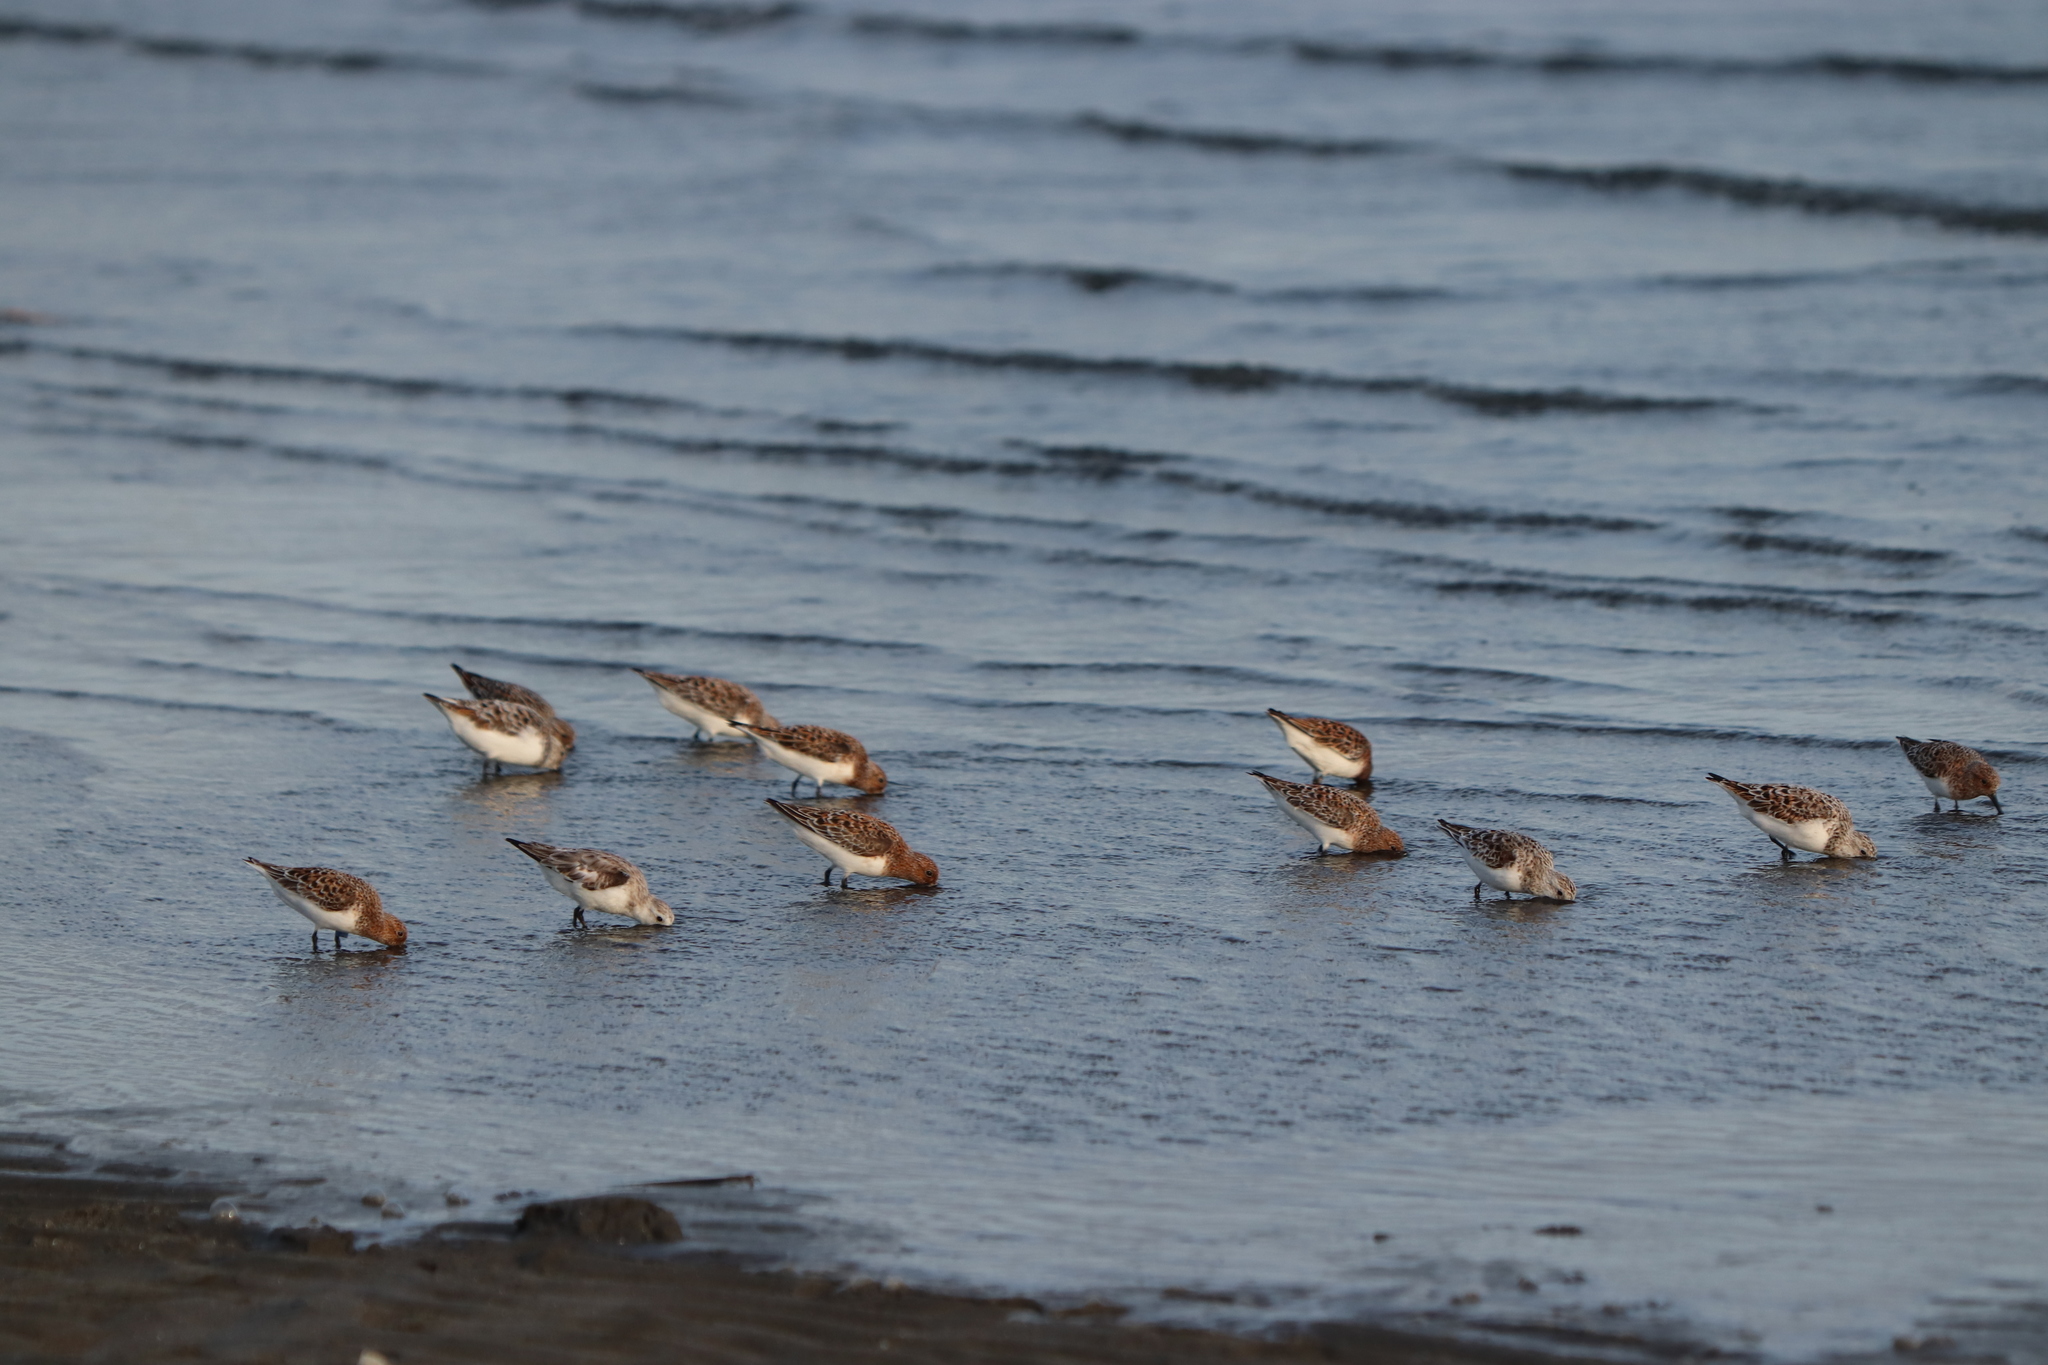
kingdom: Animalia
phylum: Chordata
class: Aves
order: Charadriiformes
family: Scolopacidae
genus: Calidris
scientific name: Calidris ruficollis
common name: Red-necked stint
